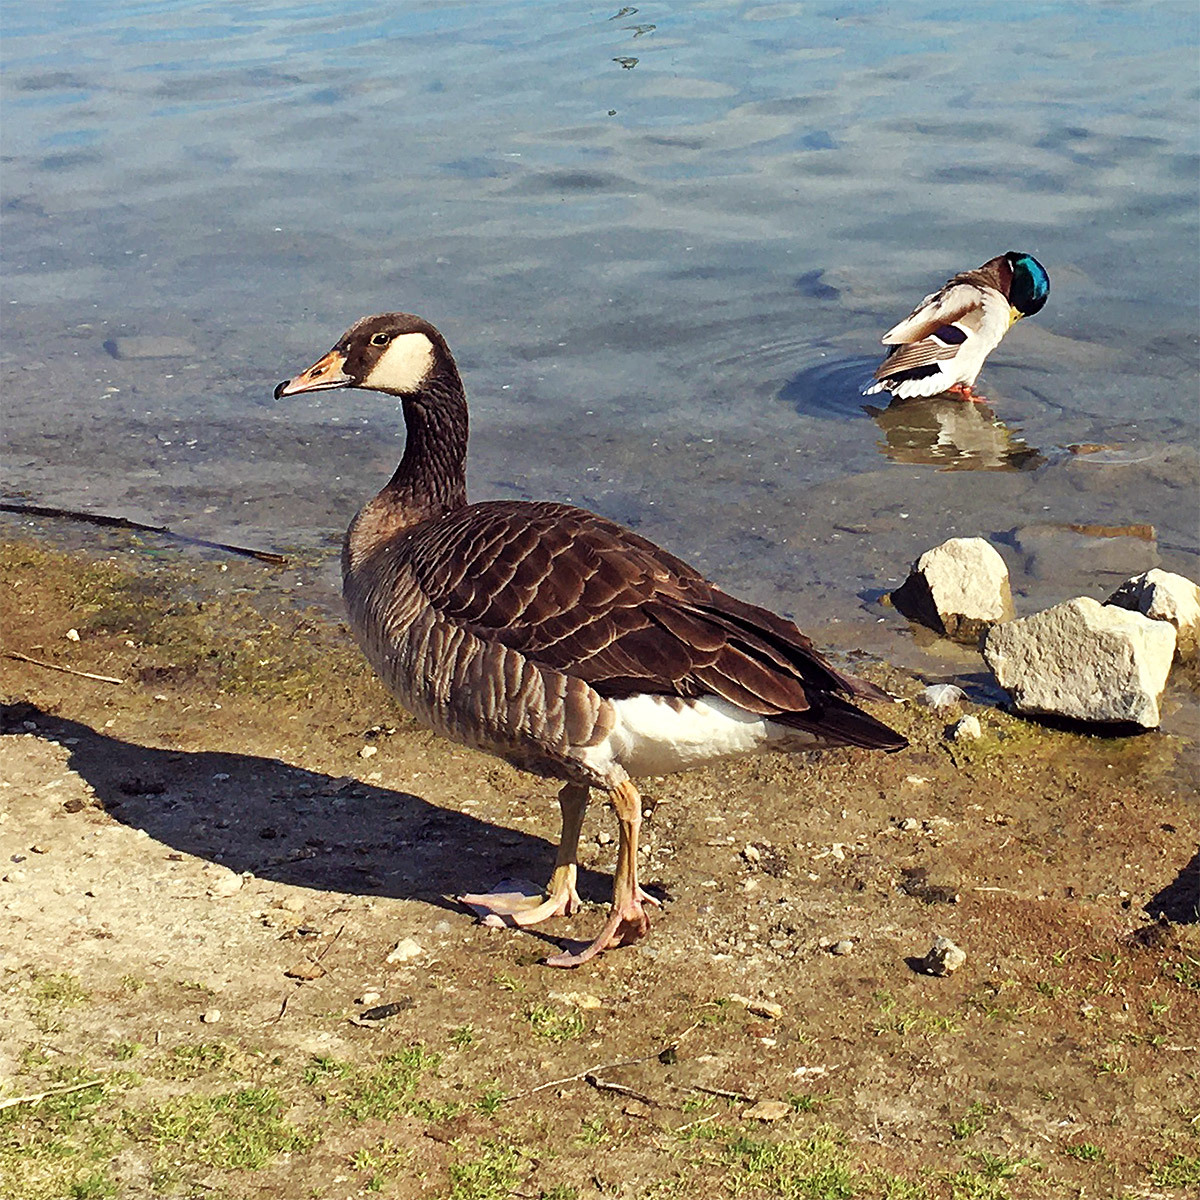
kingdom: Animalia
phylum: Chordata
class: Aves
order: Anseriformes
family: Anatidae
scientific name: Anatidae
